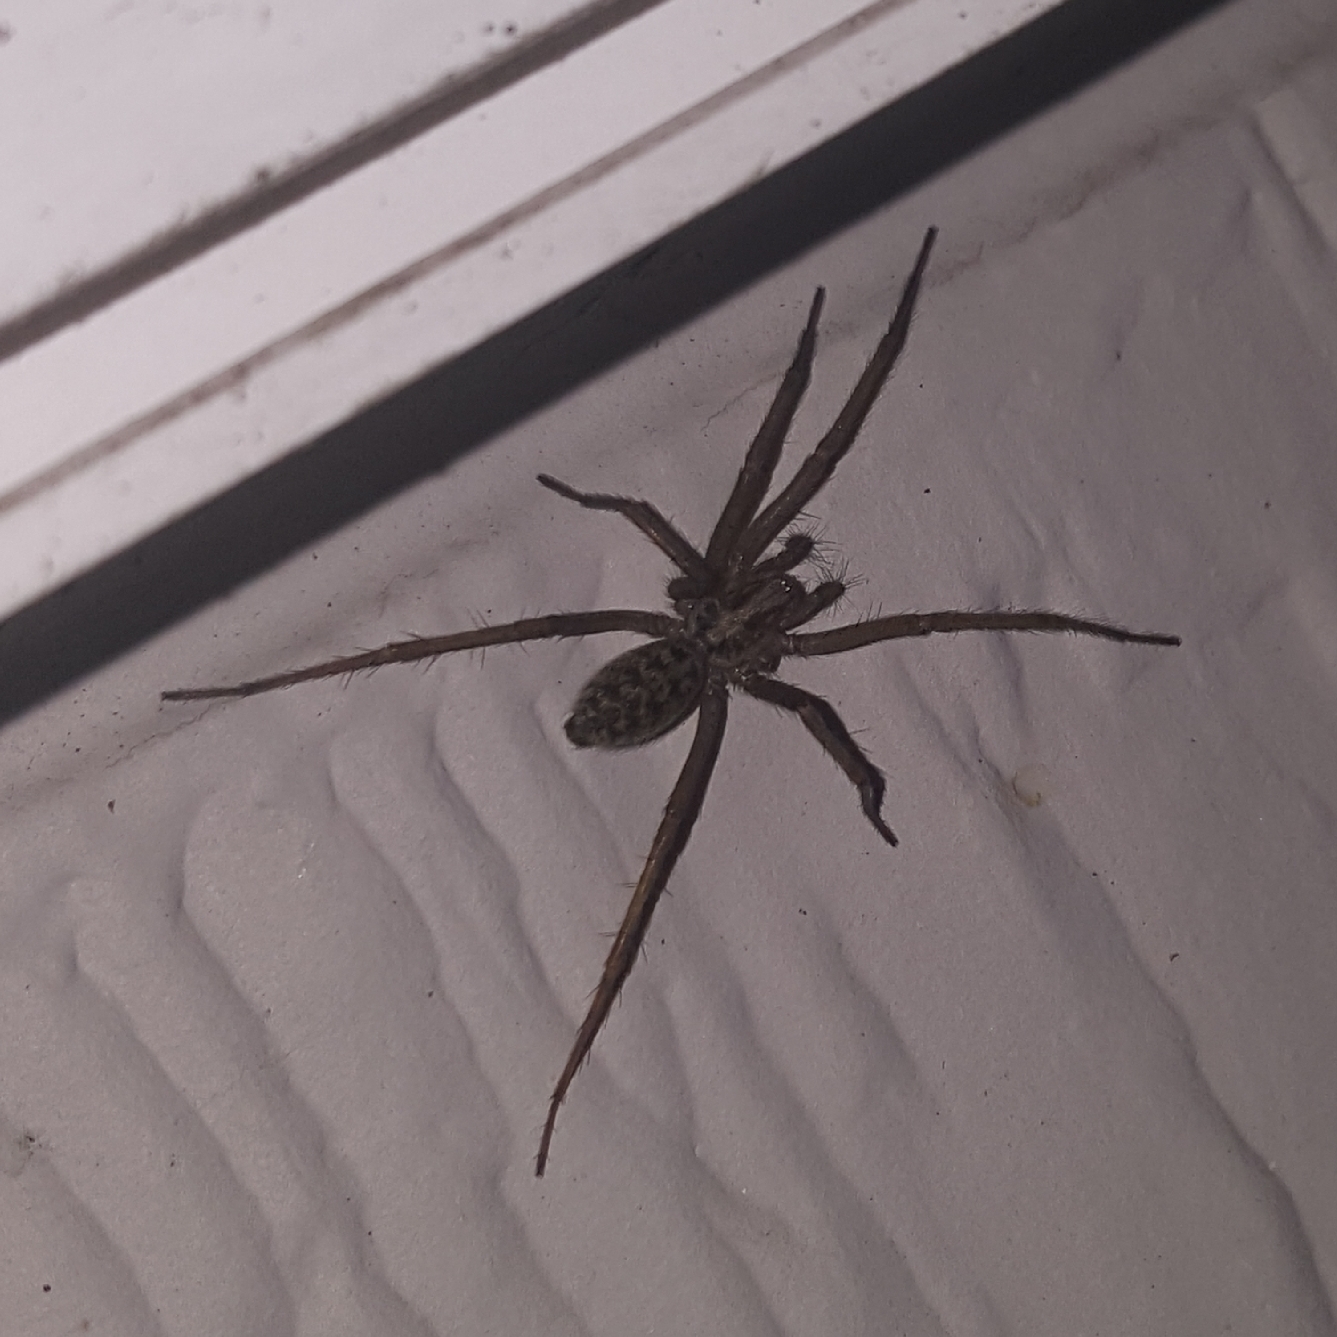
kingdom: Animalia
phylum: Arthropoda
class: Arachnida
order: Araneae
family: Agelenidae
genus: Eratigena
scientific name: Eratigena duellica
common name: Giant house spider
